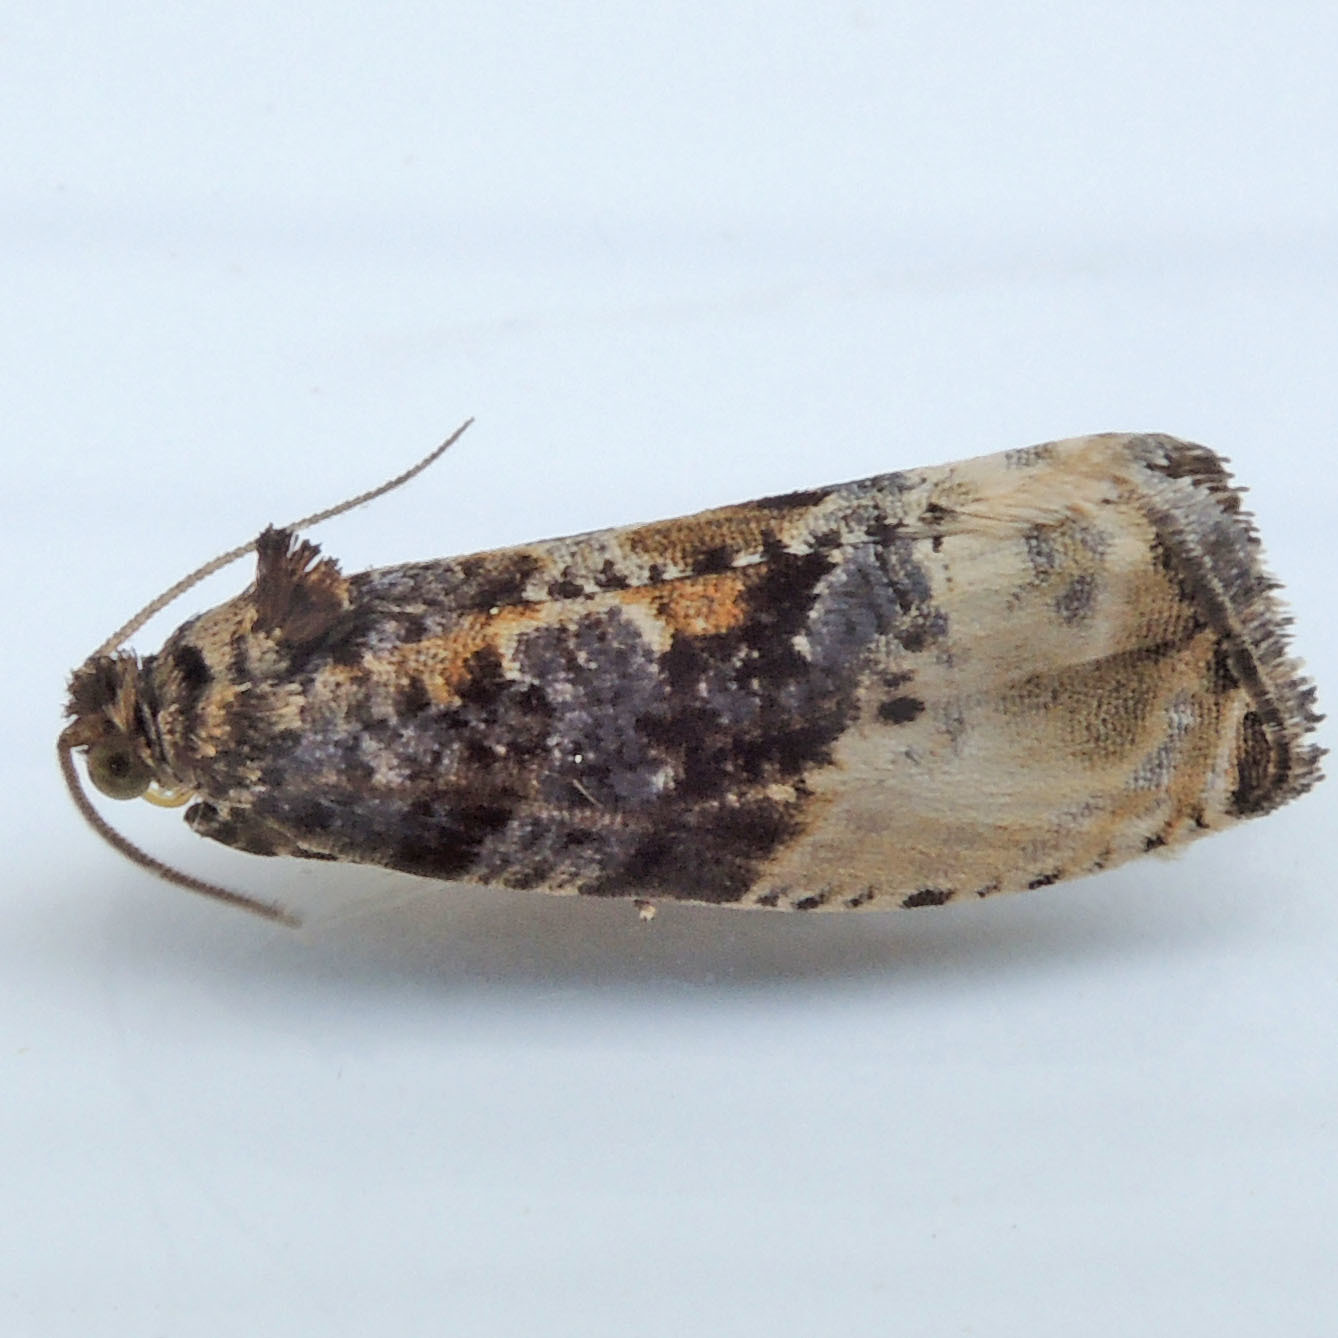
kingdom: Animalia
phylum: Arthropoda
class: Insecta
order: Lepidoptera
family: Tortricidae
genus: Hedya
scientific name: Hedya nubiferana
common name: Marbled orchard tortrix
